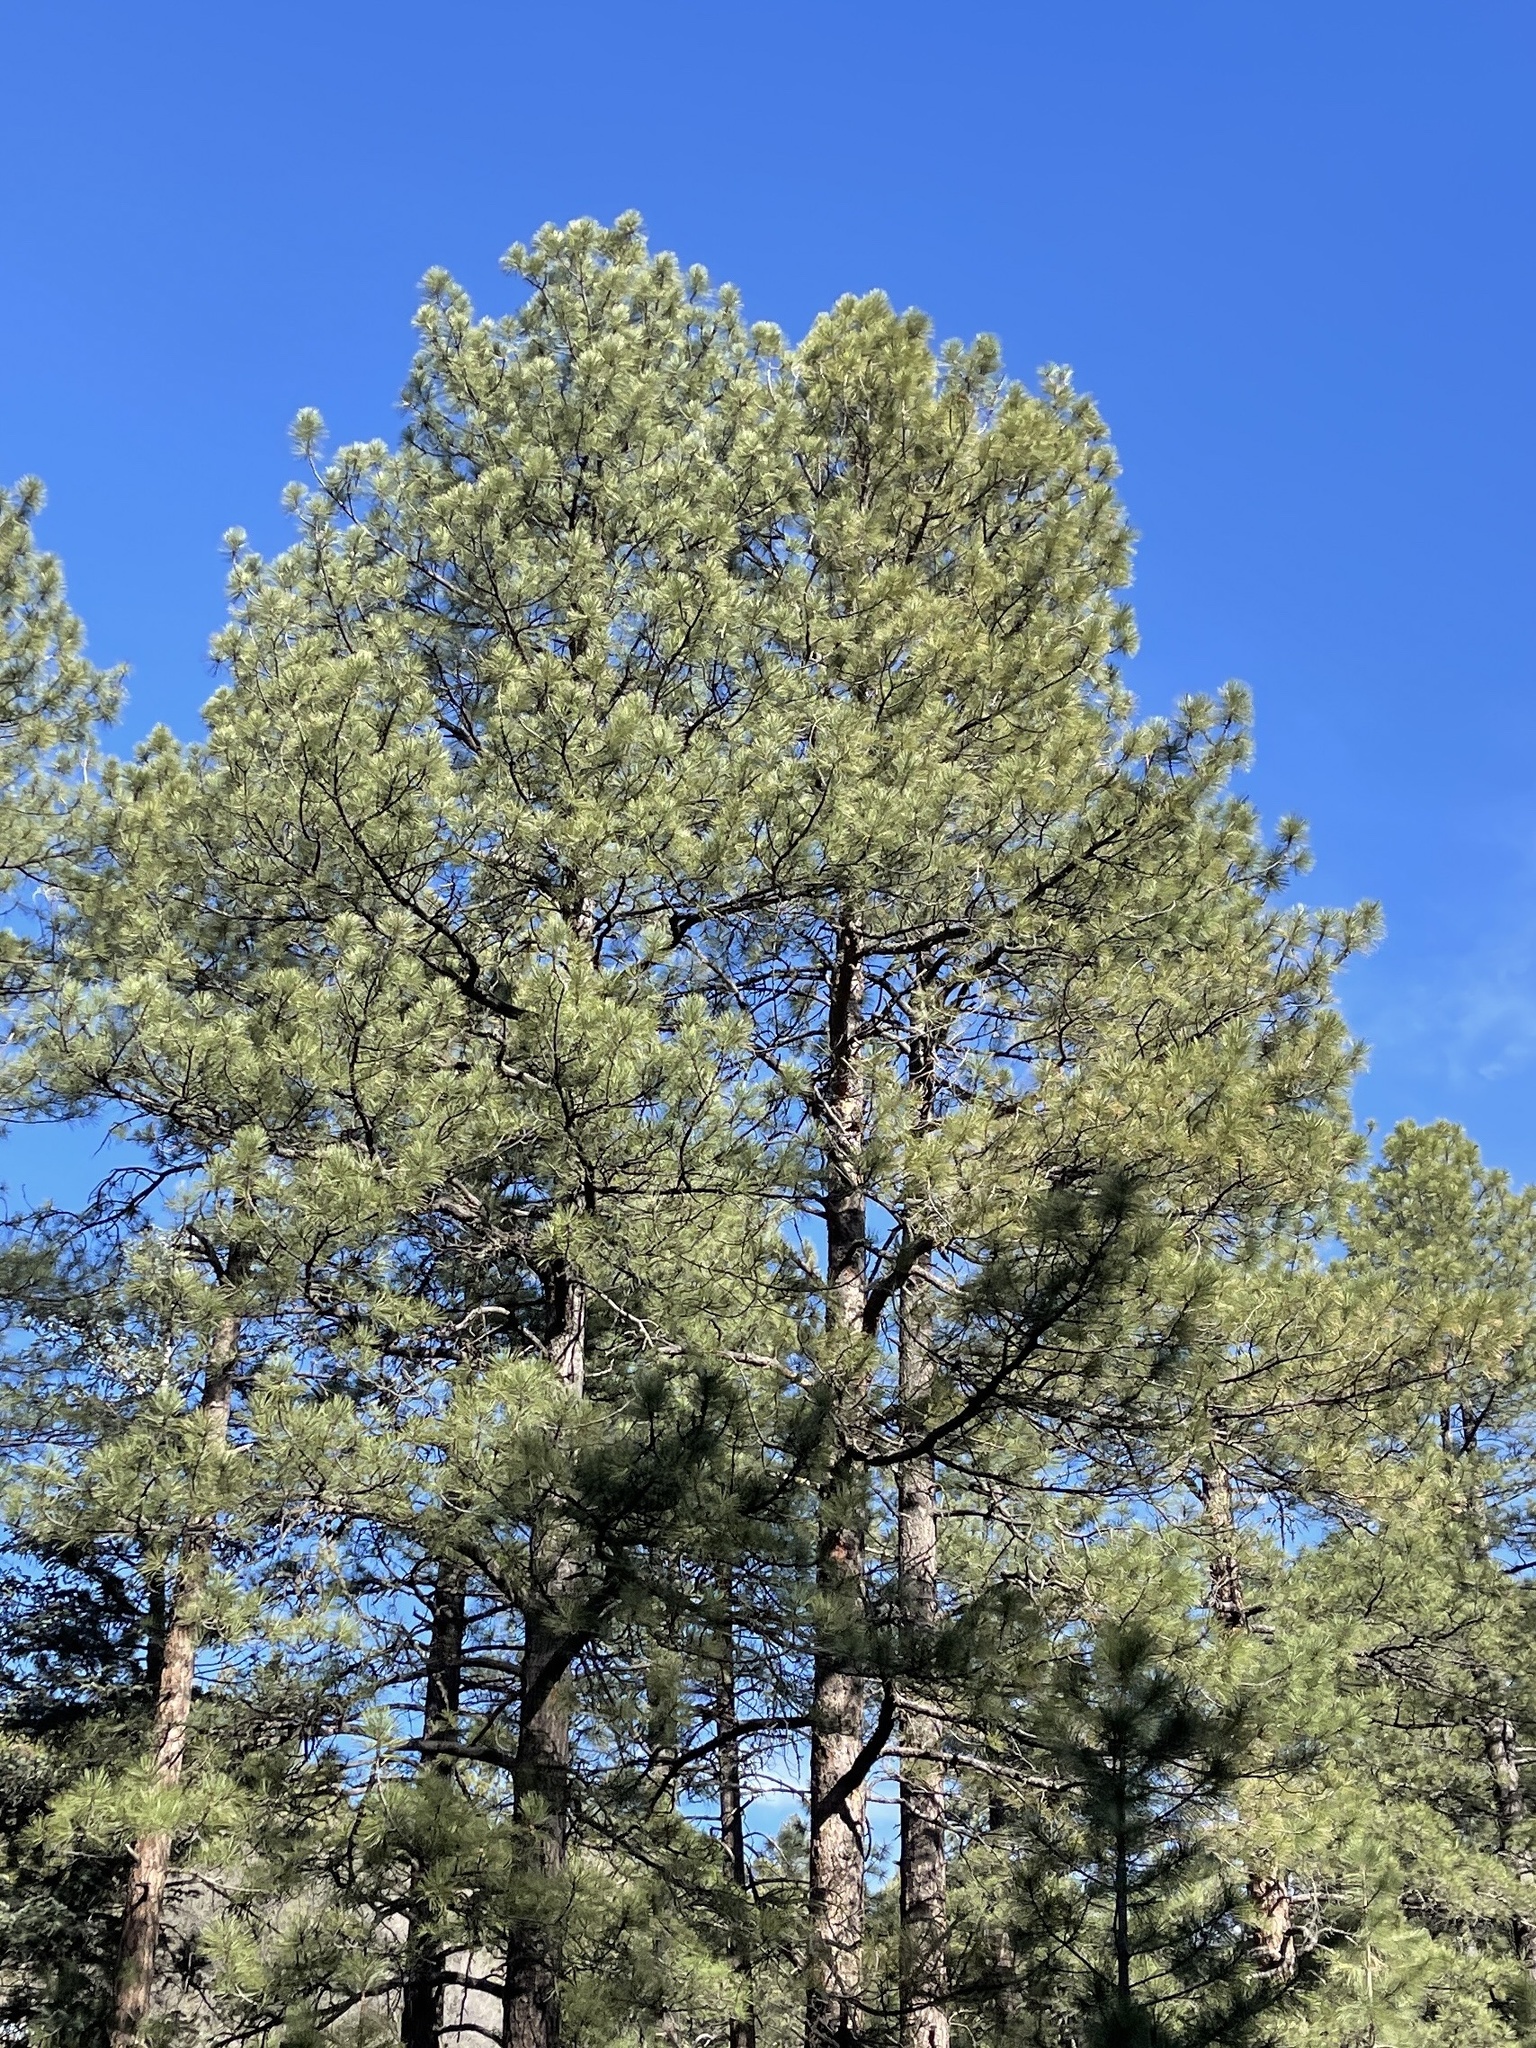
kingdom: Plantae
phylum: Tracheophyta
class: Pinopsida
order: Pinales
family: Pinaceae
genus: Pinus
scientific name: Pinus ponderosa
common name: Western yellow-pine
